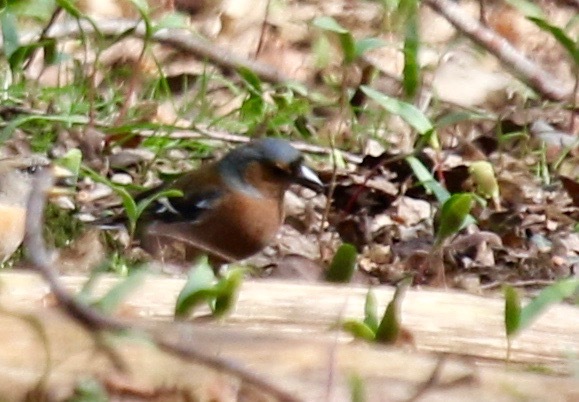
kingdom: Animalia
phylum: Chordata
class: Aves
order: Passeriformes
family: Fringillidae
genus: Fringilla
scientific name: Fringilla coelebs
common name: Common chaffinch
